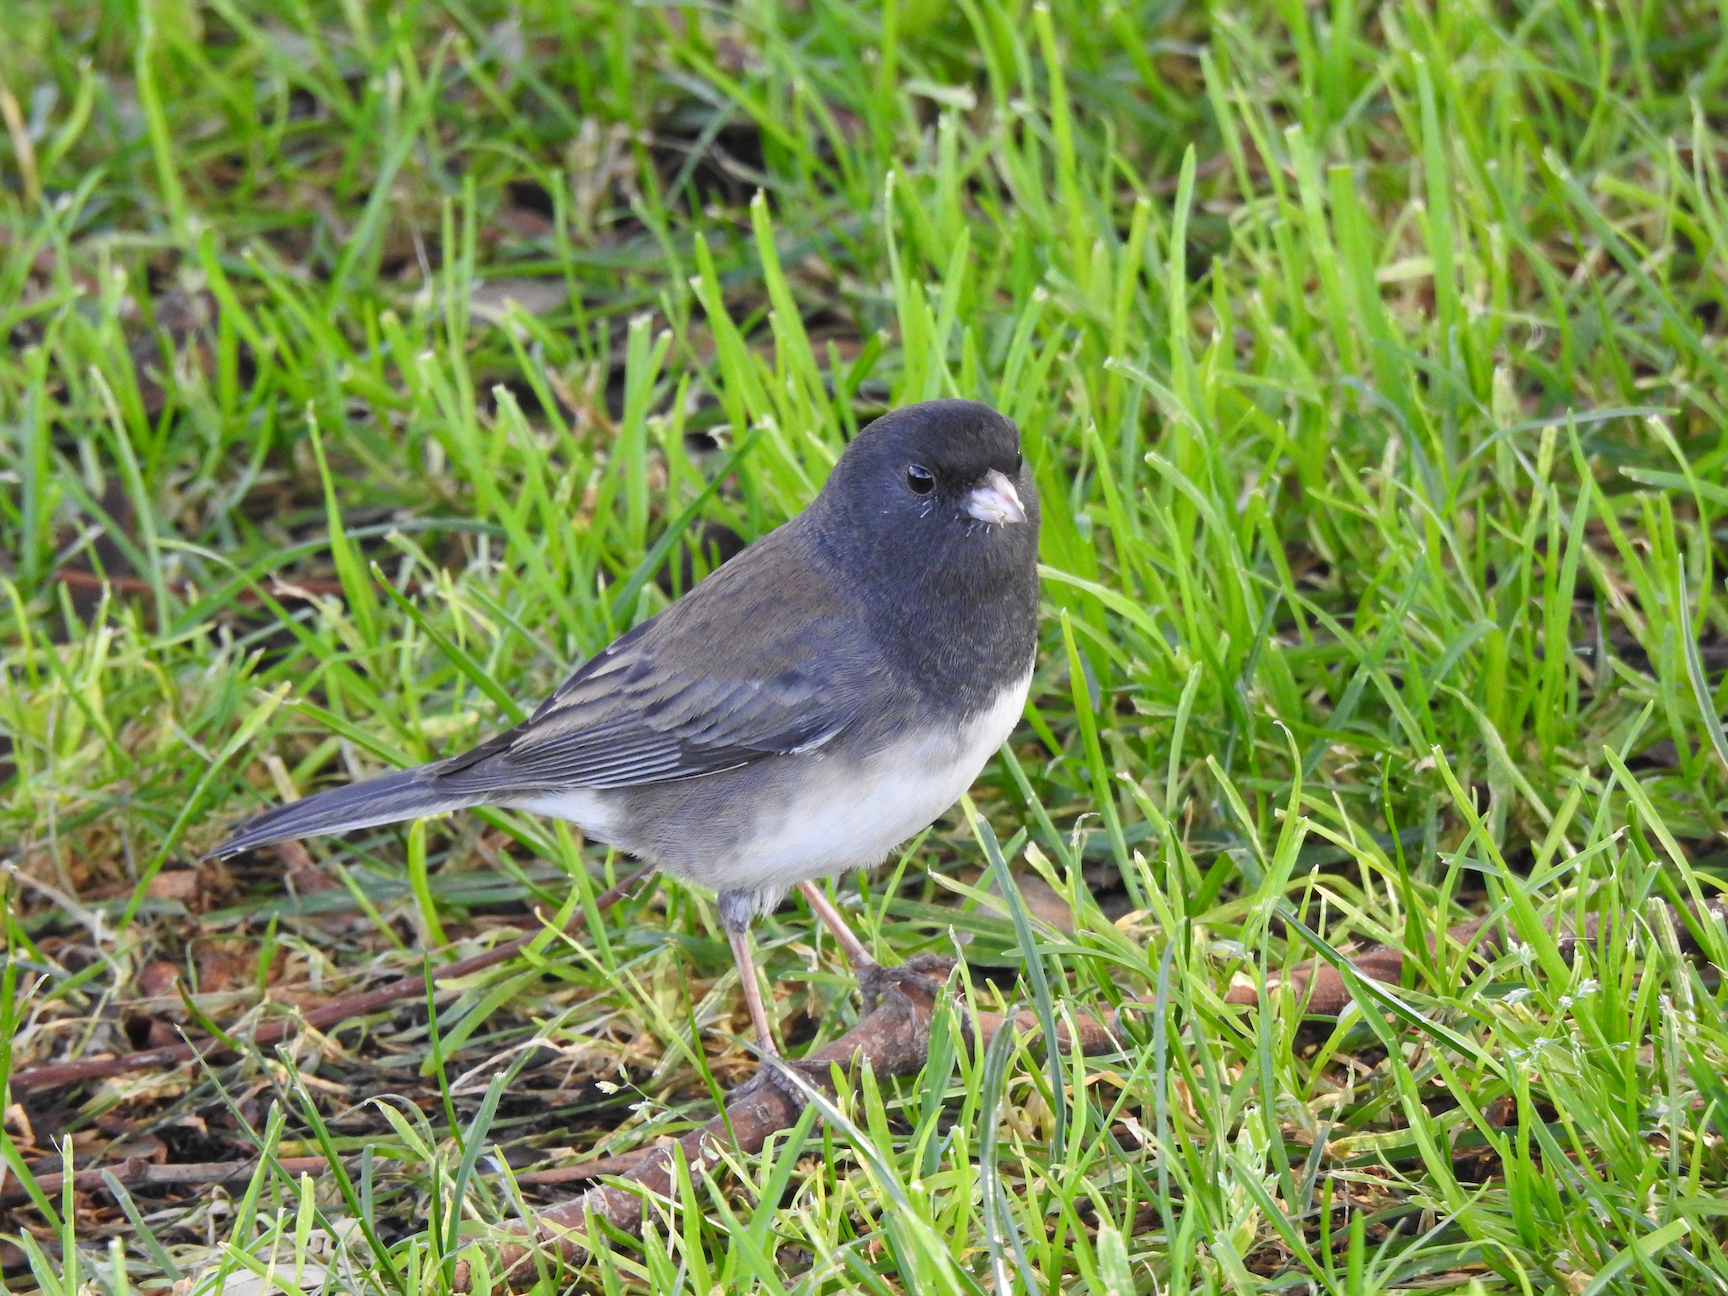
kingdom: Animalia
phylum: Chordata
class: Aves
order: Passeriformes
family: Passerellidae
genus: Junco
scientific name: Junco hyemalis
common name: Dark-eyed junco
